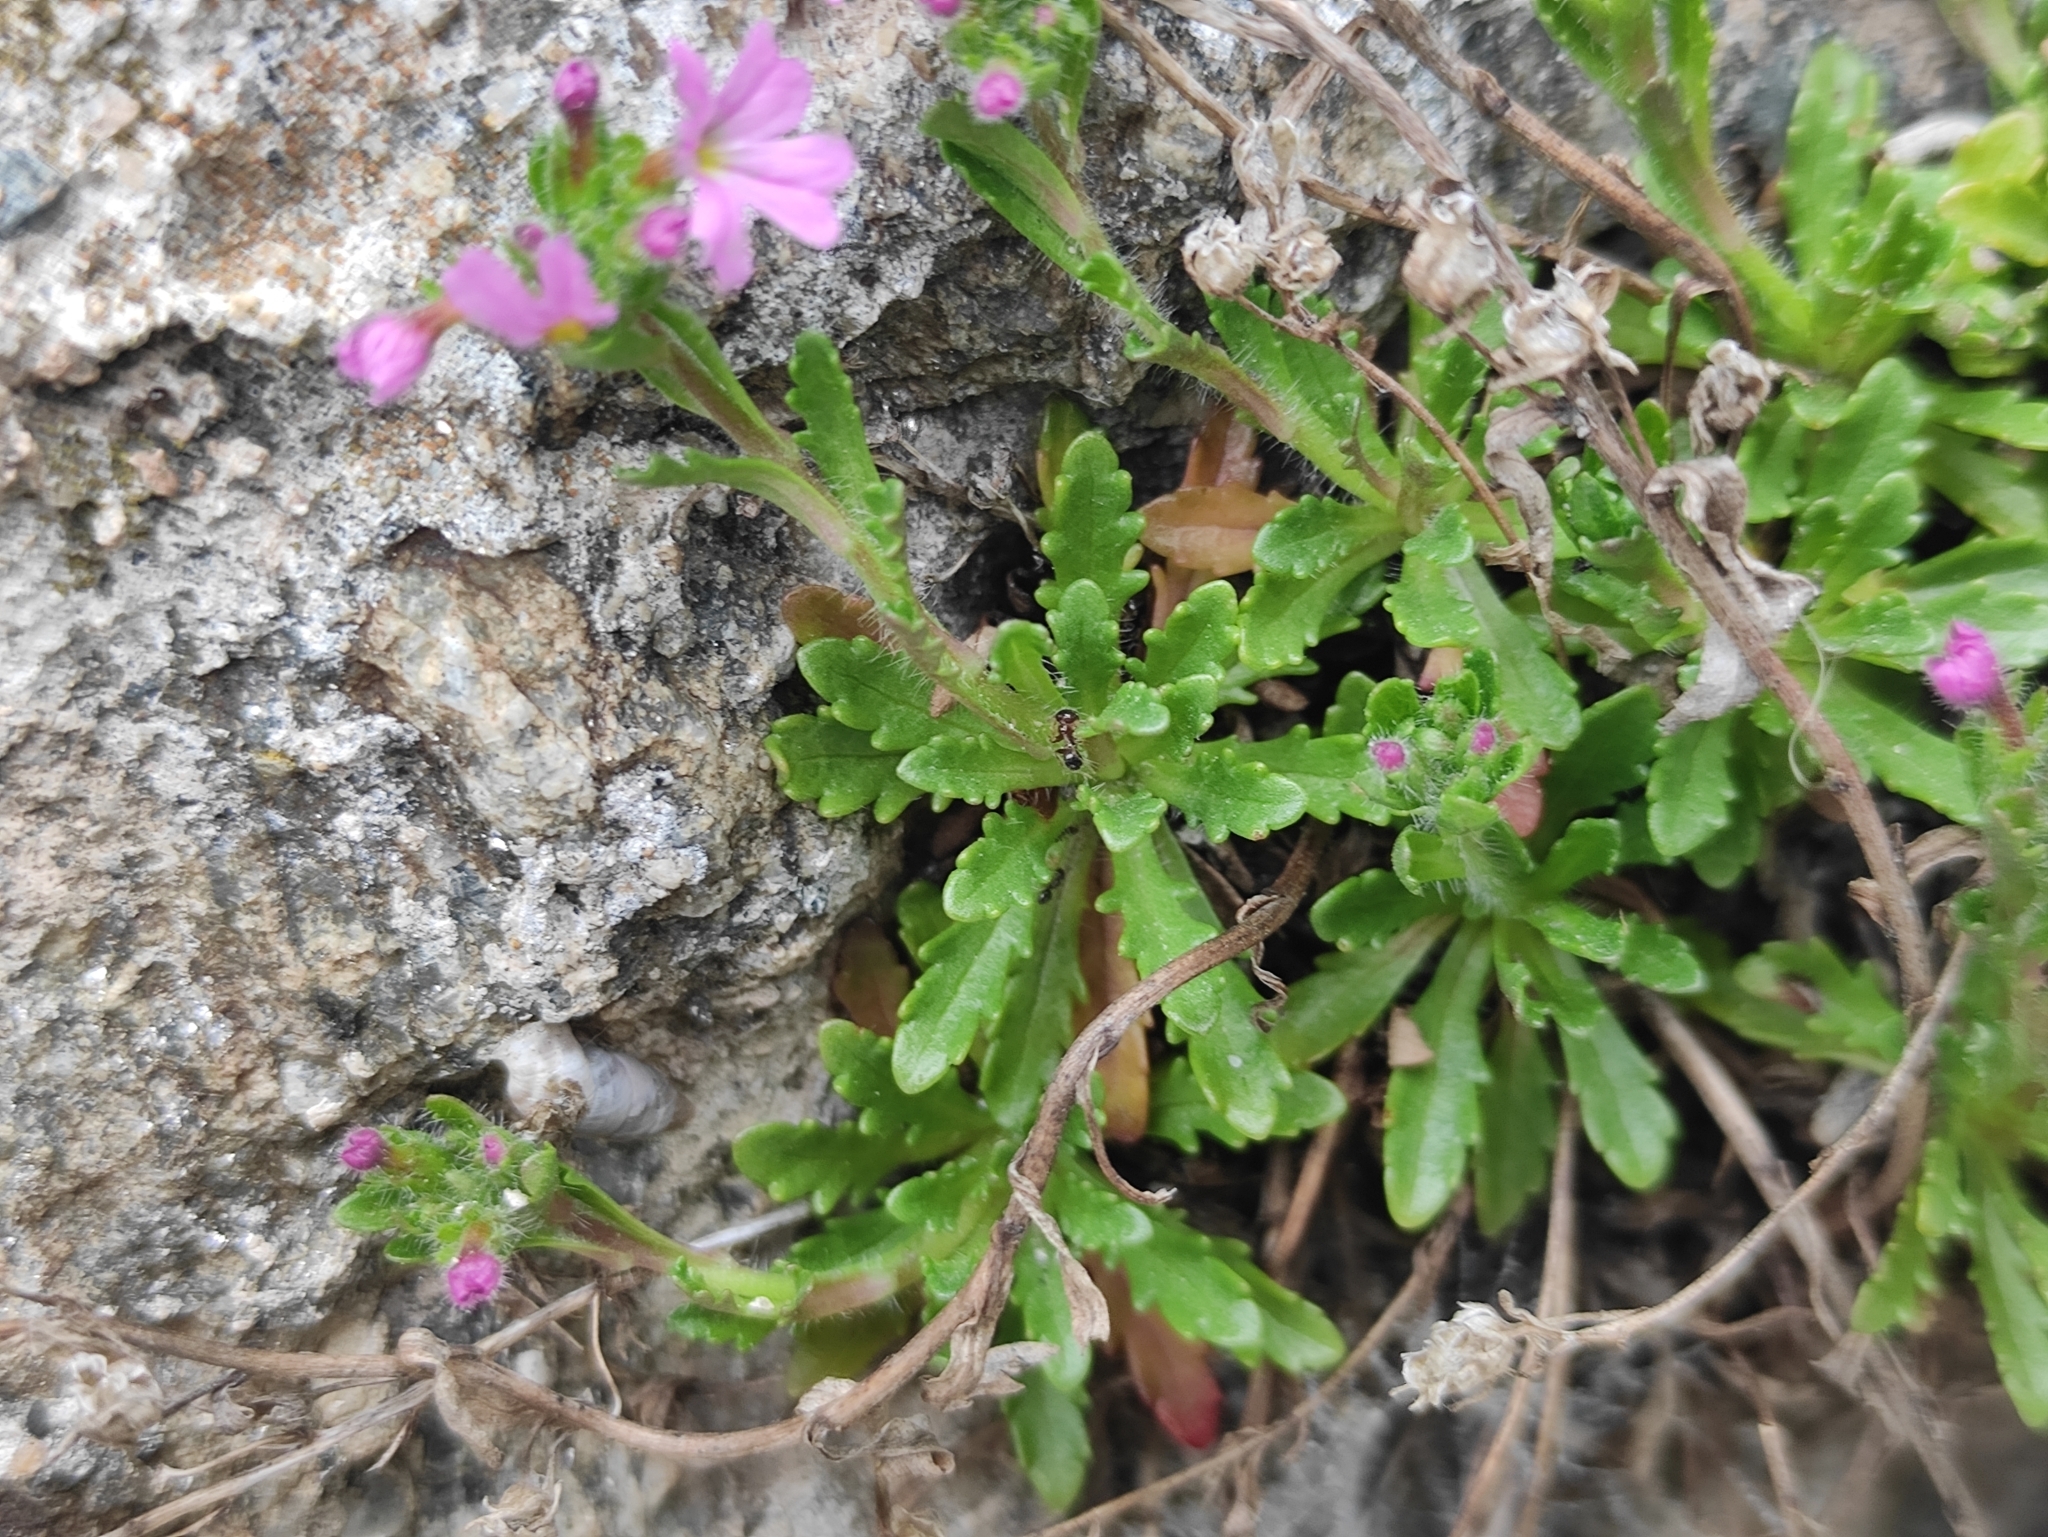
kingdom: Plantae
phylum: Tracheophyta
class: Magnoliopsida
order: Lamiales
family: Plantaginaceae
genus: Erinus
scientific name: Erinus alpinus
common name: Fairy foxglove
